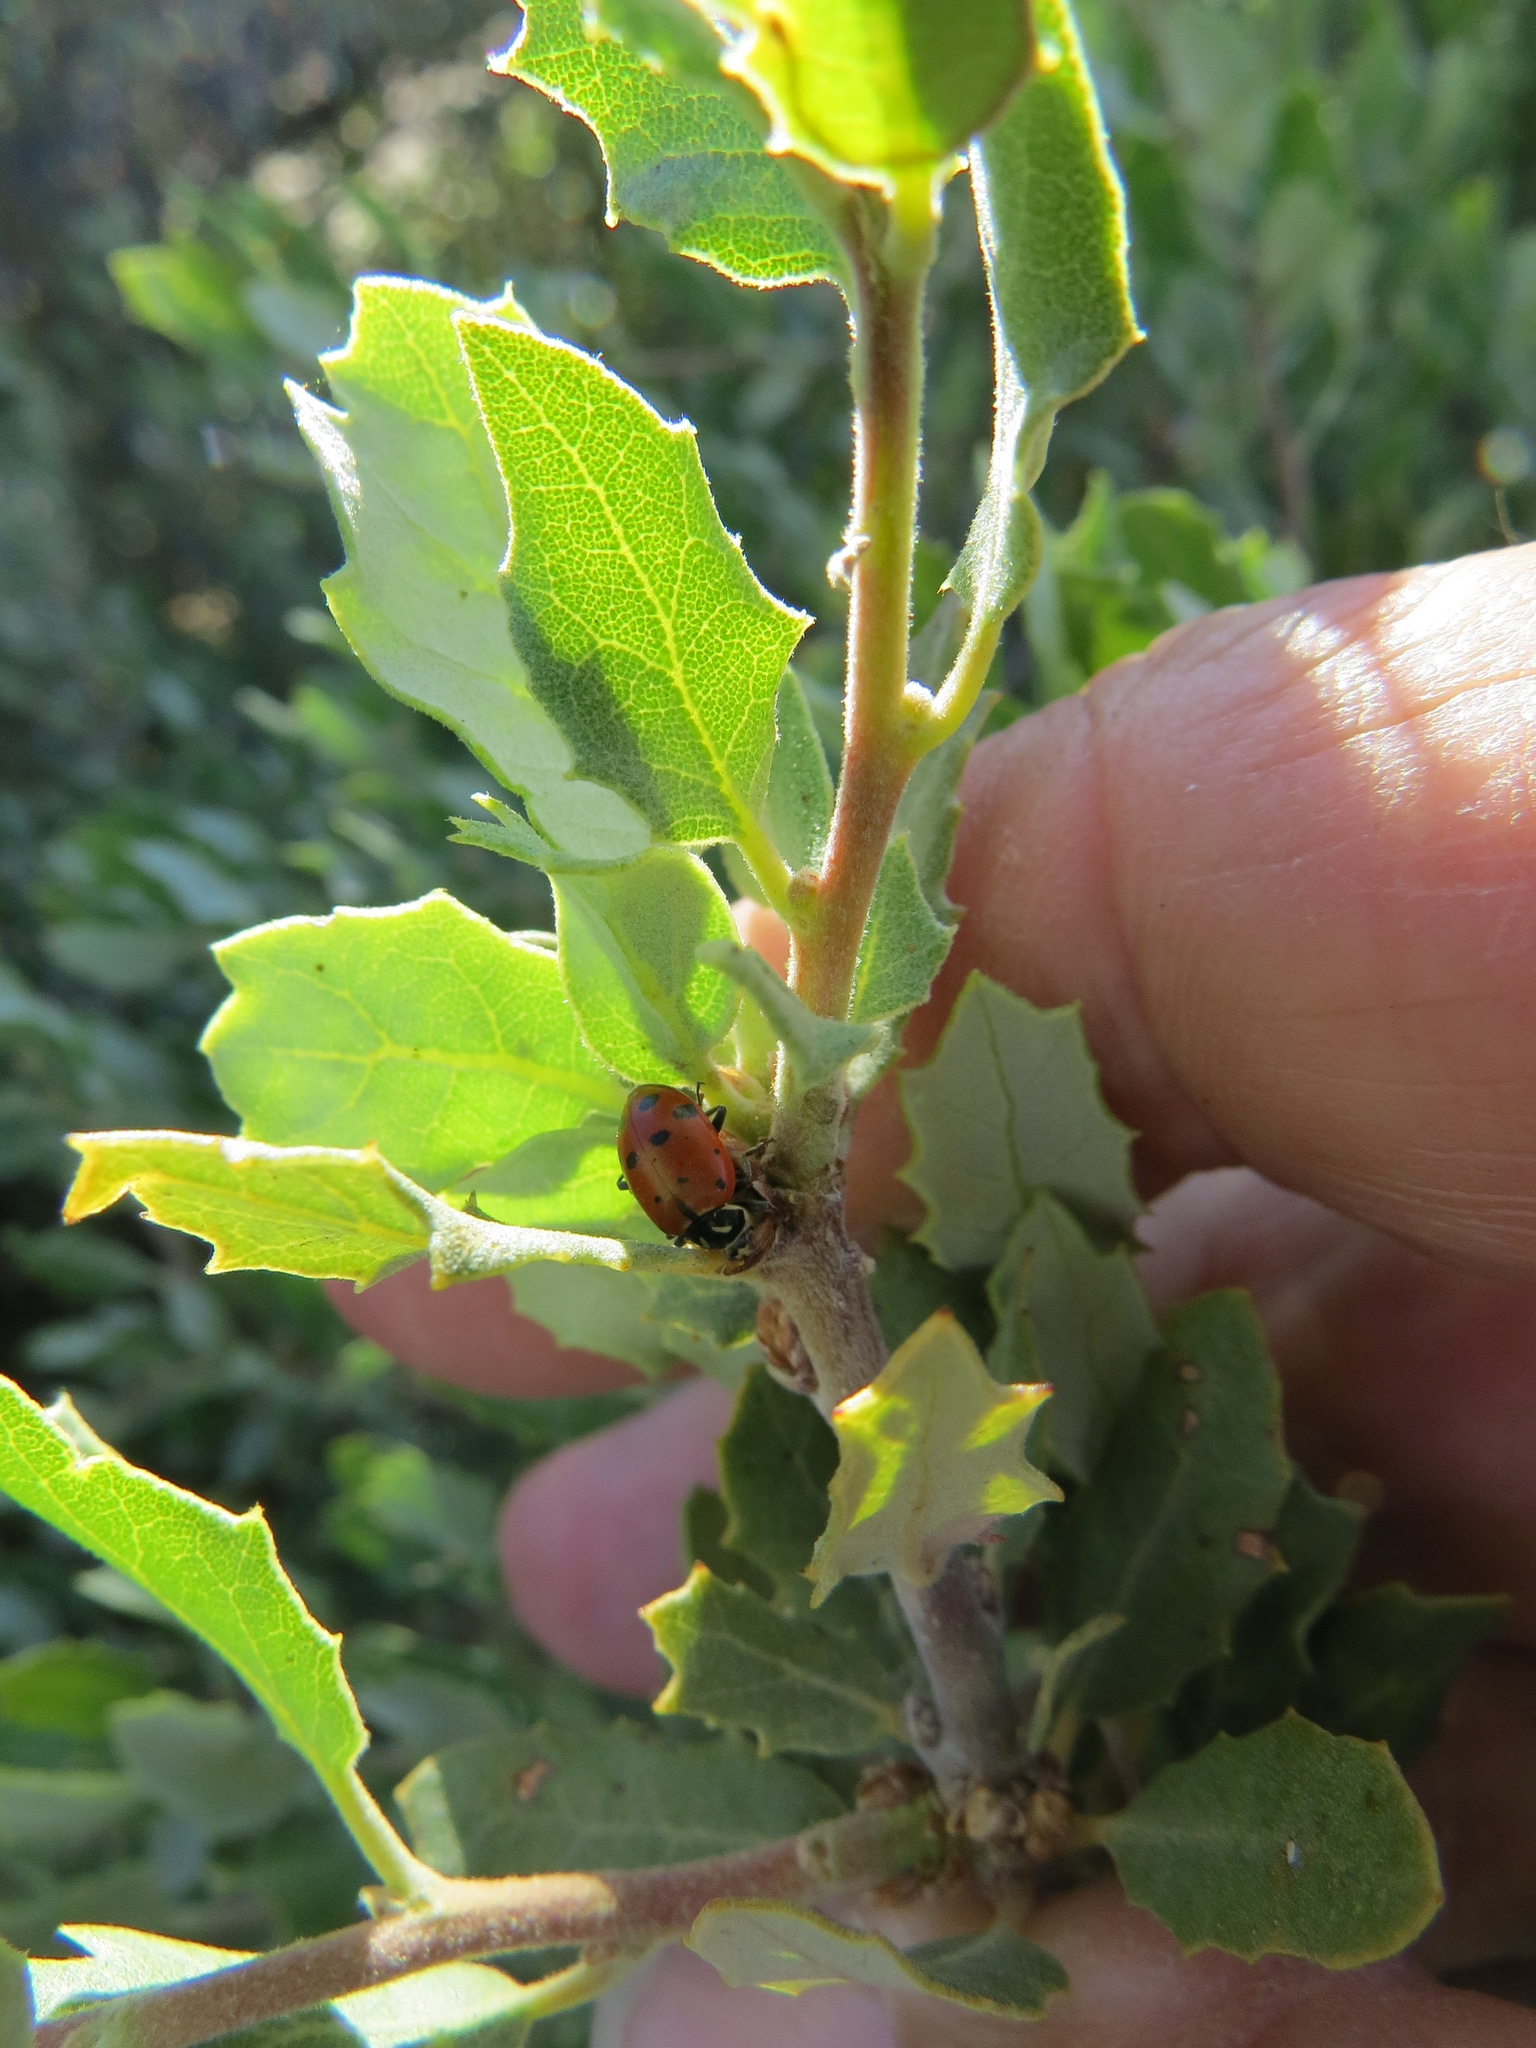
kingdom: Animalia
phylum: Arthropoda
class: Insecta
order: Coleoptera
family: Coccinellidae
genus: Hippodamia
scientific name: Hippodamia convergens
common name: Convergent lady beetle
